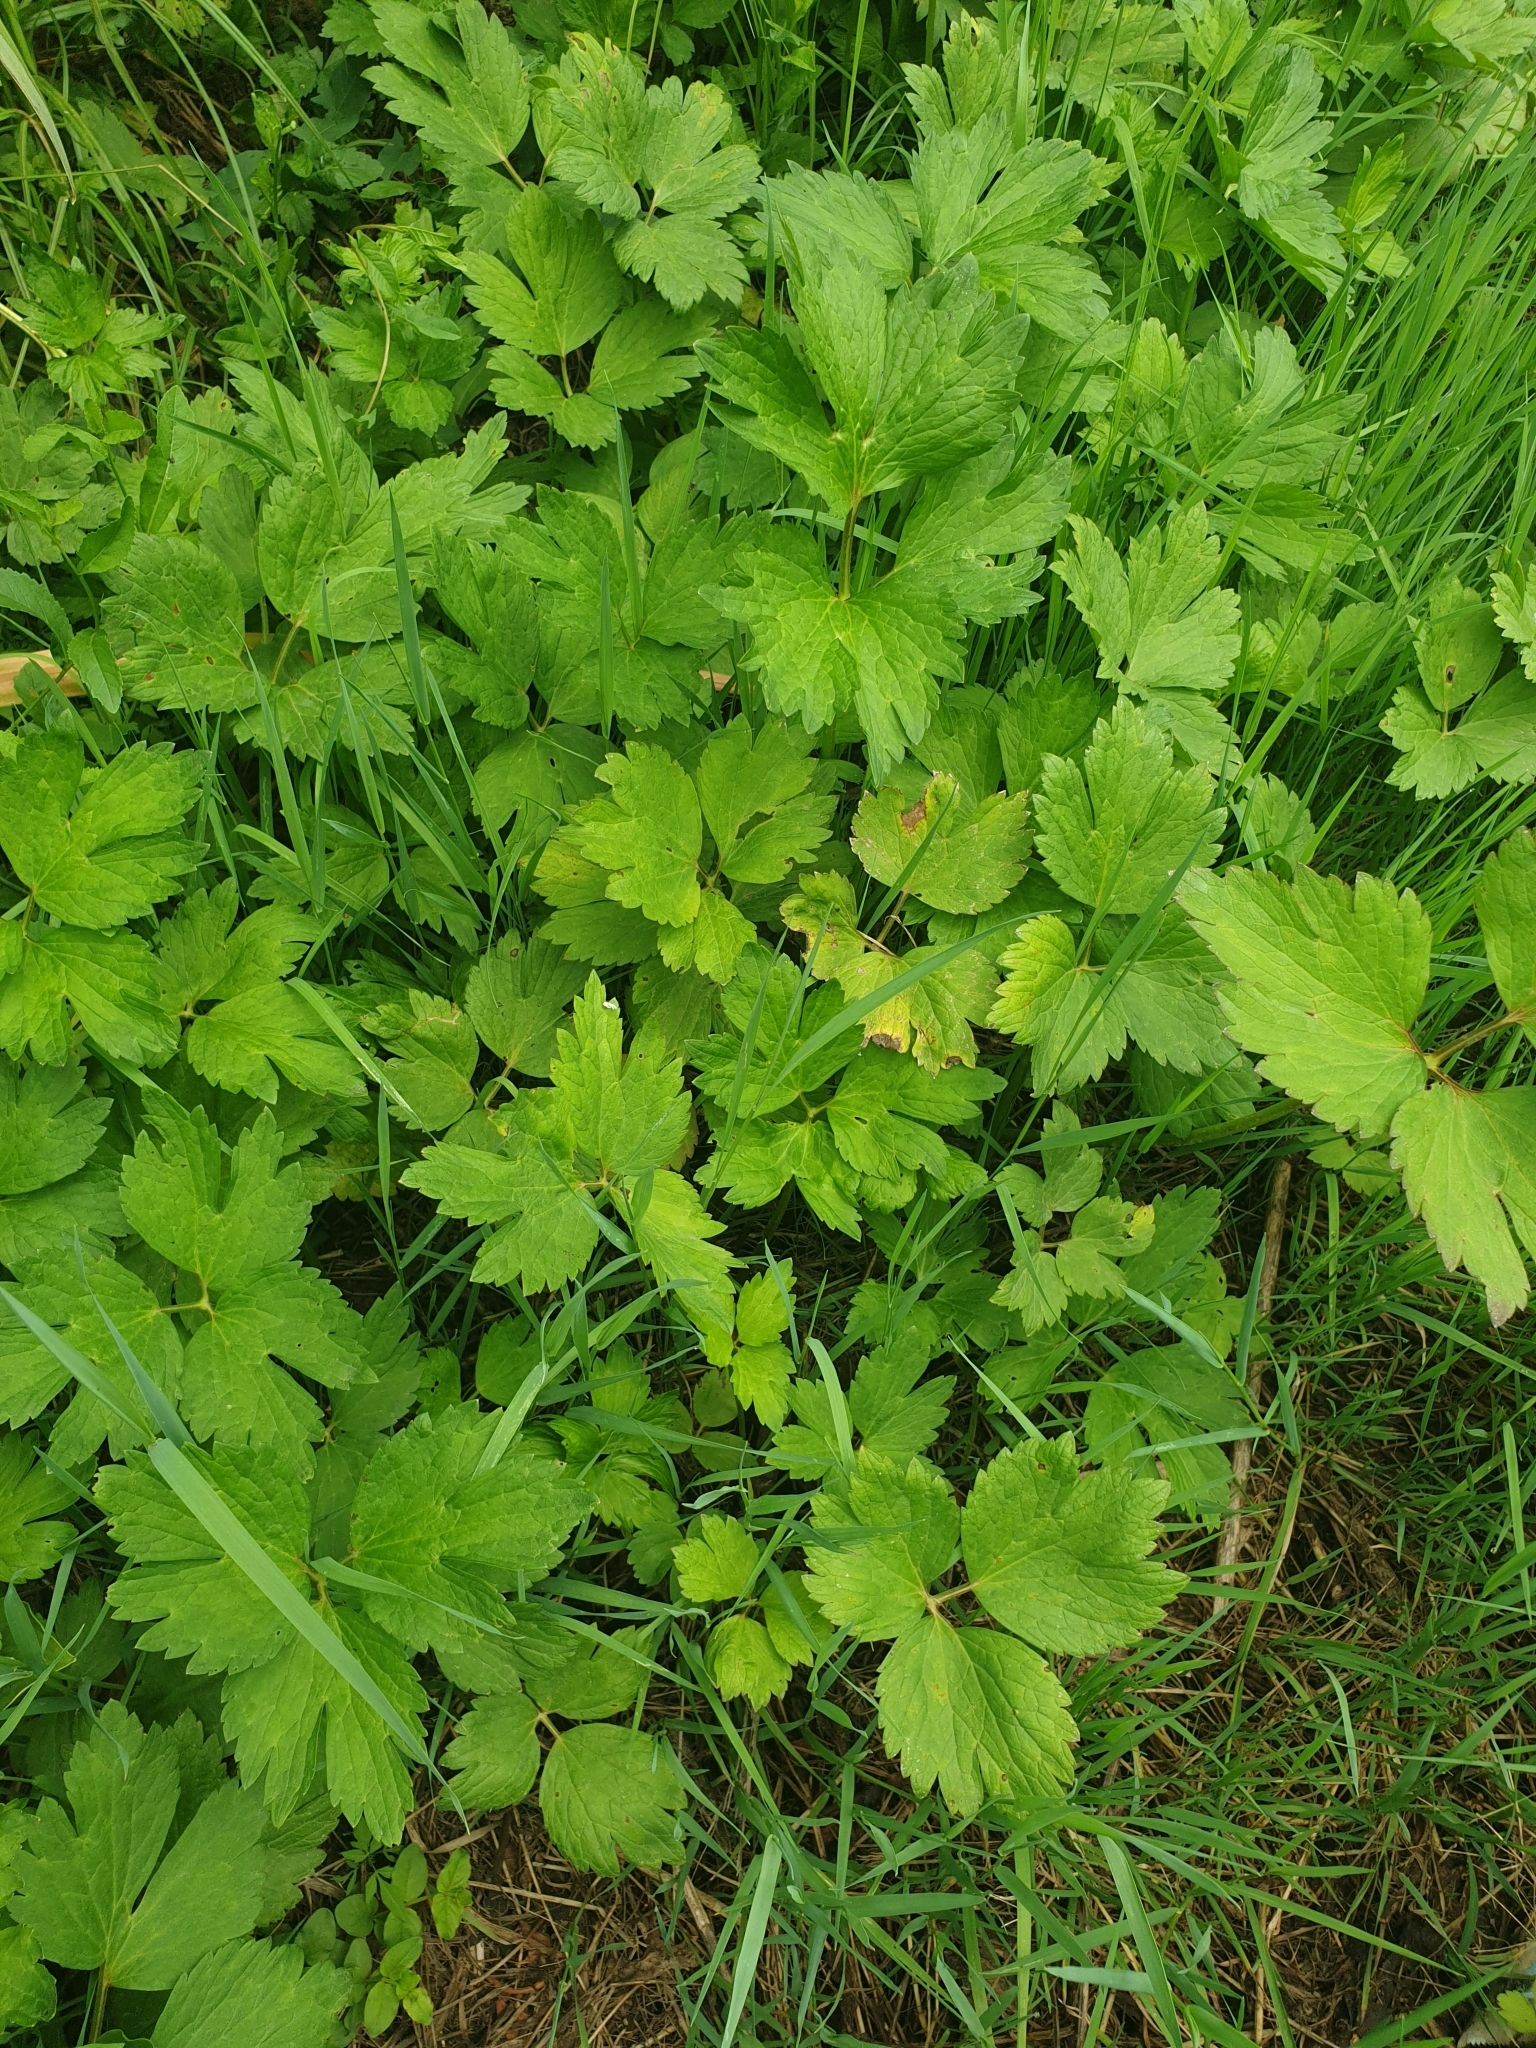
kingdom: Plantae
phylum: Tracheophyta
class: Magnoliopsida
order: Ranunculales
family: Ranunculaceae
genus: Ranunculus
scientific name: Ranunculus repens
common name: Creeping buttercup
